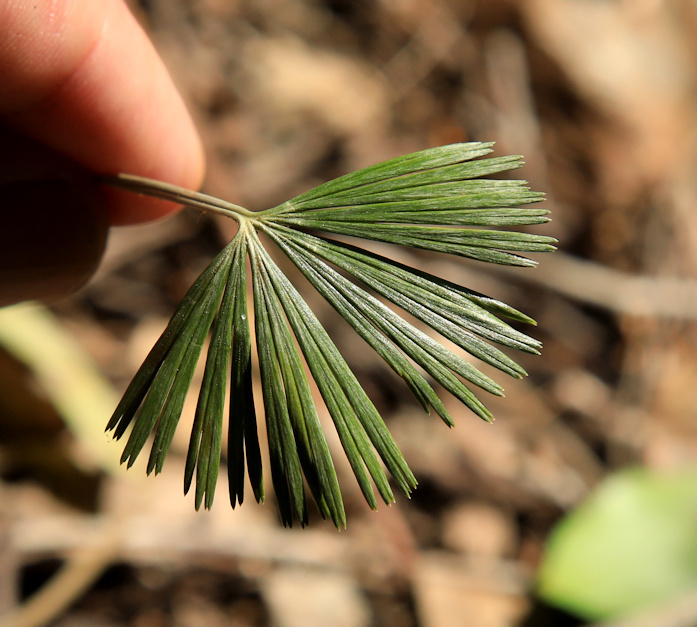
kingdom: Plantae
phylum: Tracheophyta
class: Polypodiopsida
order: Polypodiales
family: Pteridaceae
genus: Actiniopteris
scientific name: Actiniopteris radiata
